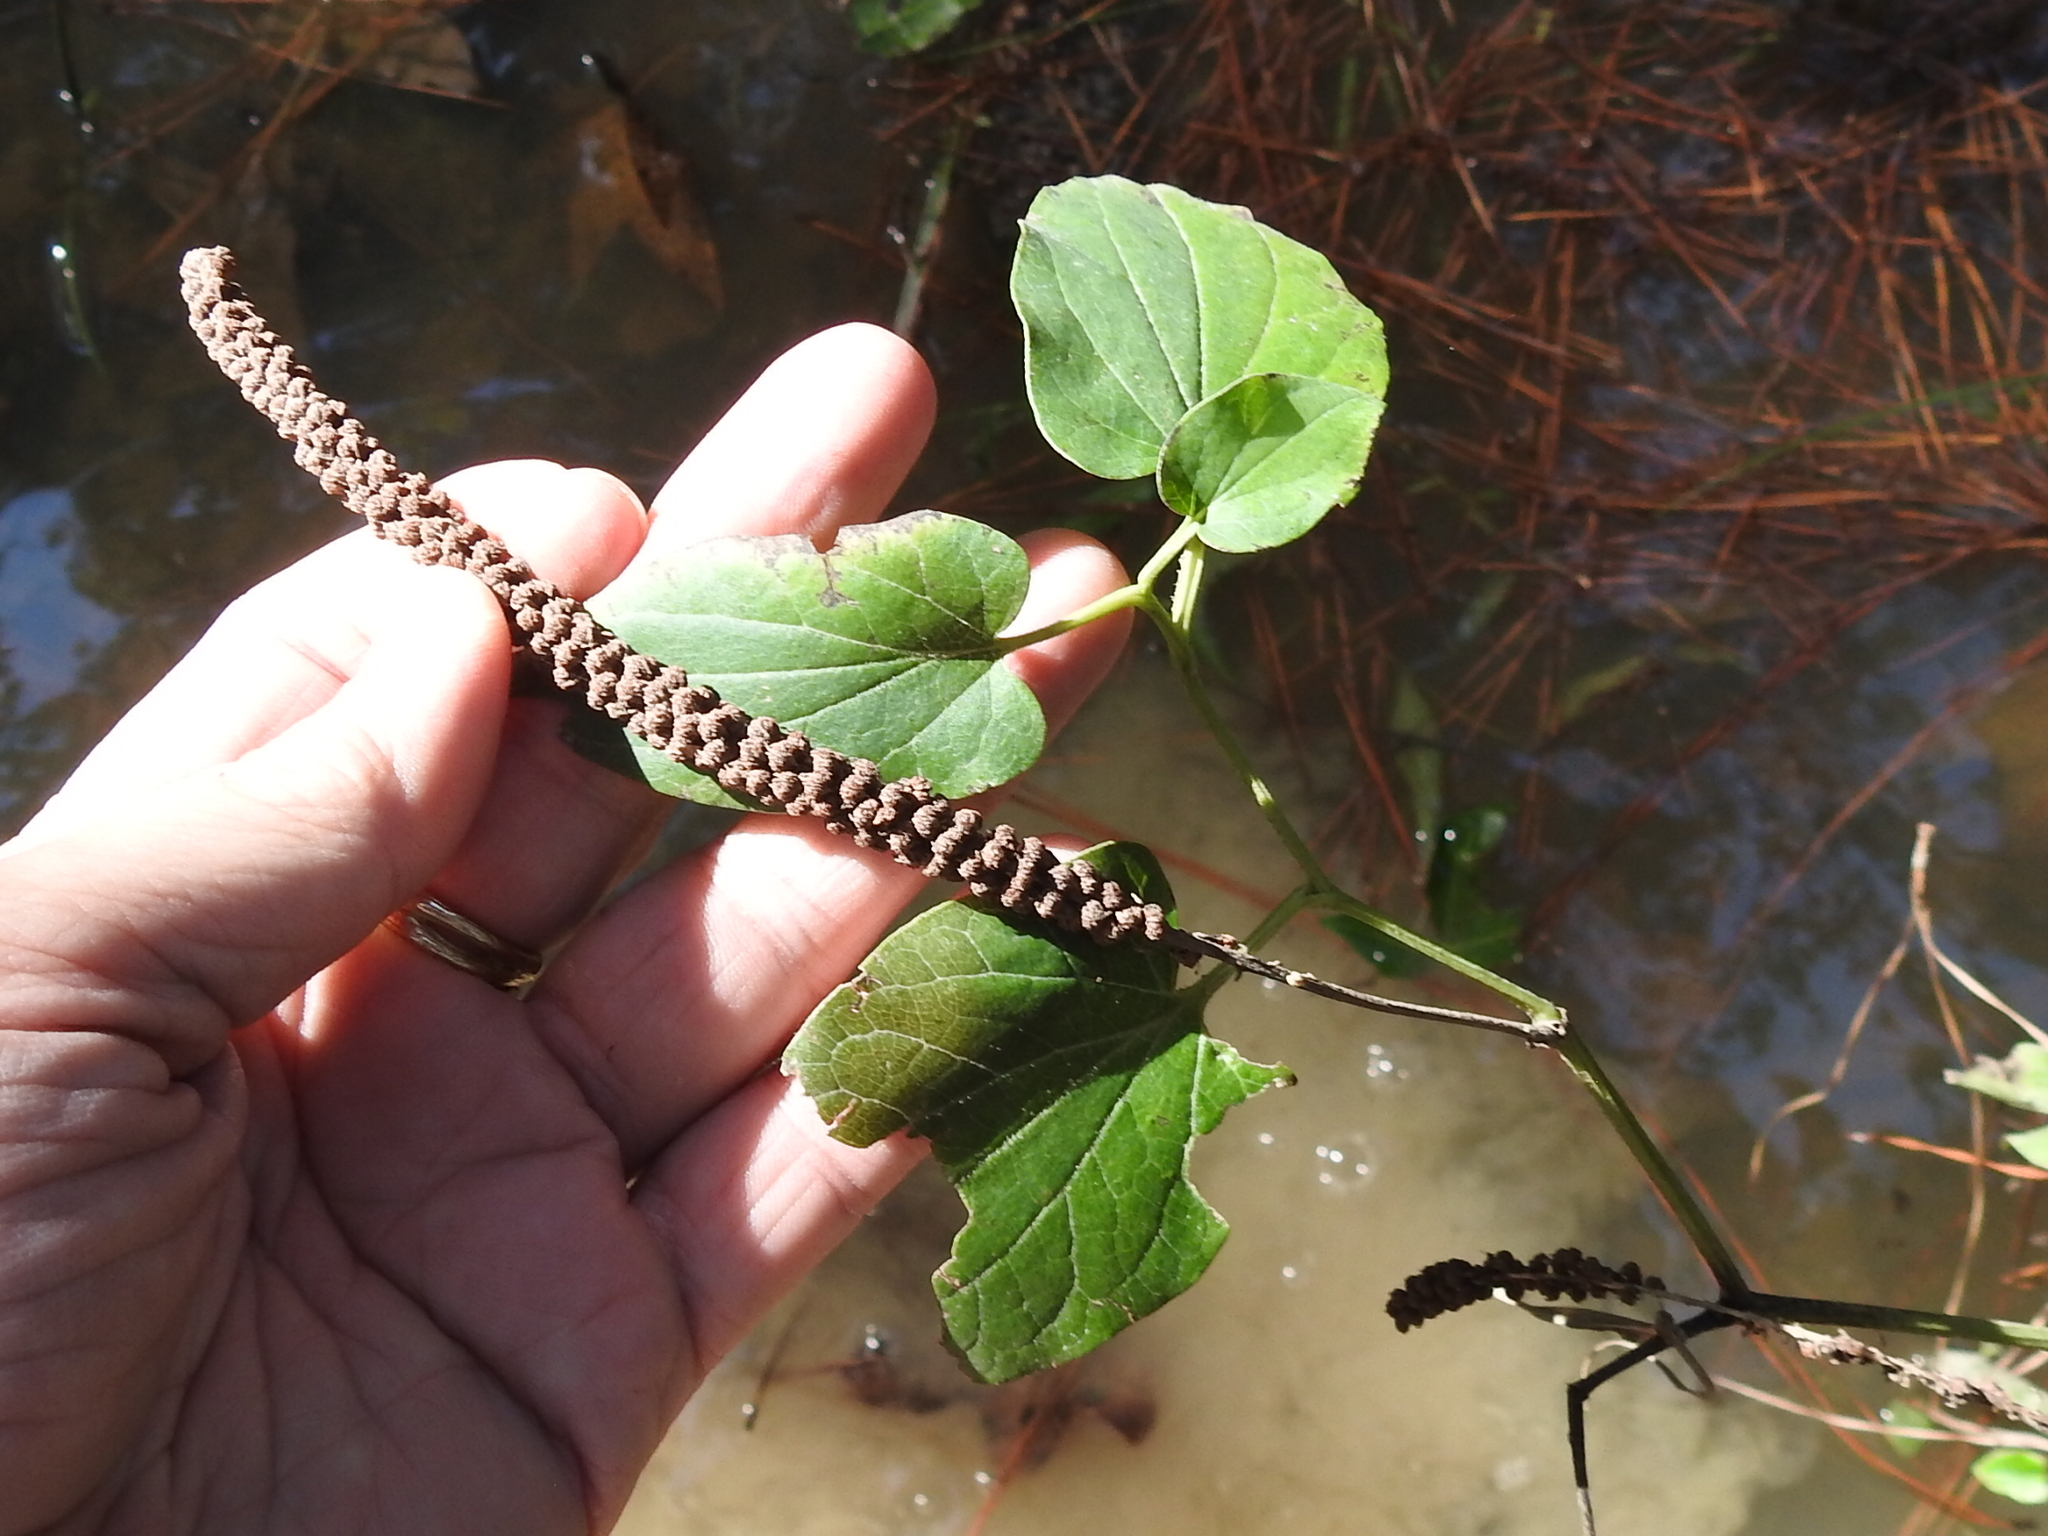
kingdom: Plantae
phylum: Tracheophyta
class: Magnoliopsida
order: Piperales
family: Saururaceae
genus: Saururus
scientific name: Saururus cernuus
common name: Lizard's-tail
